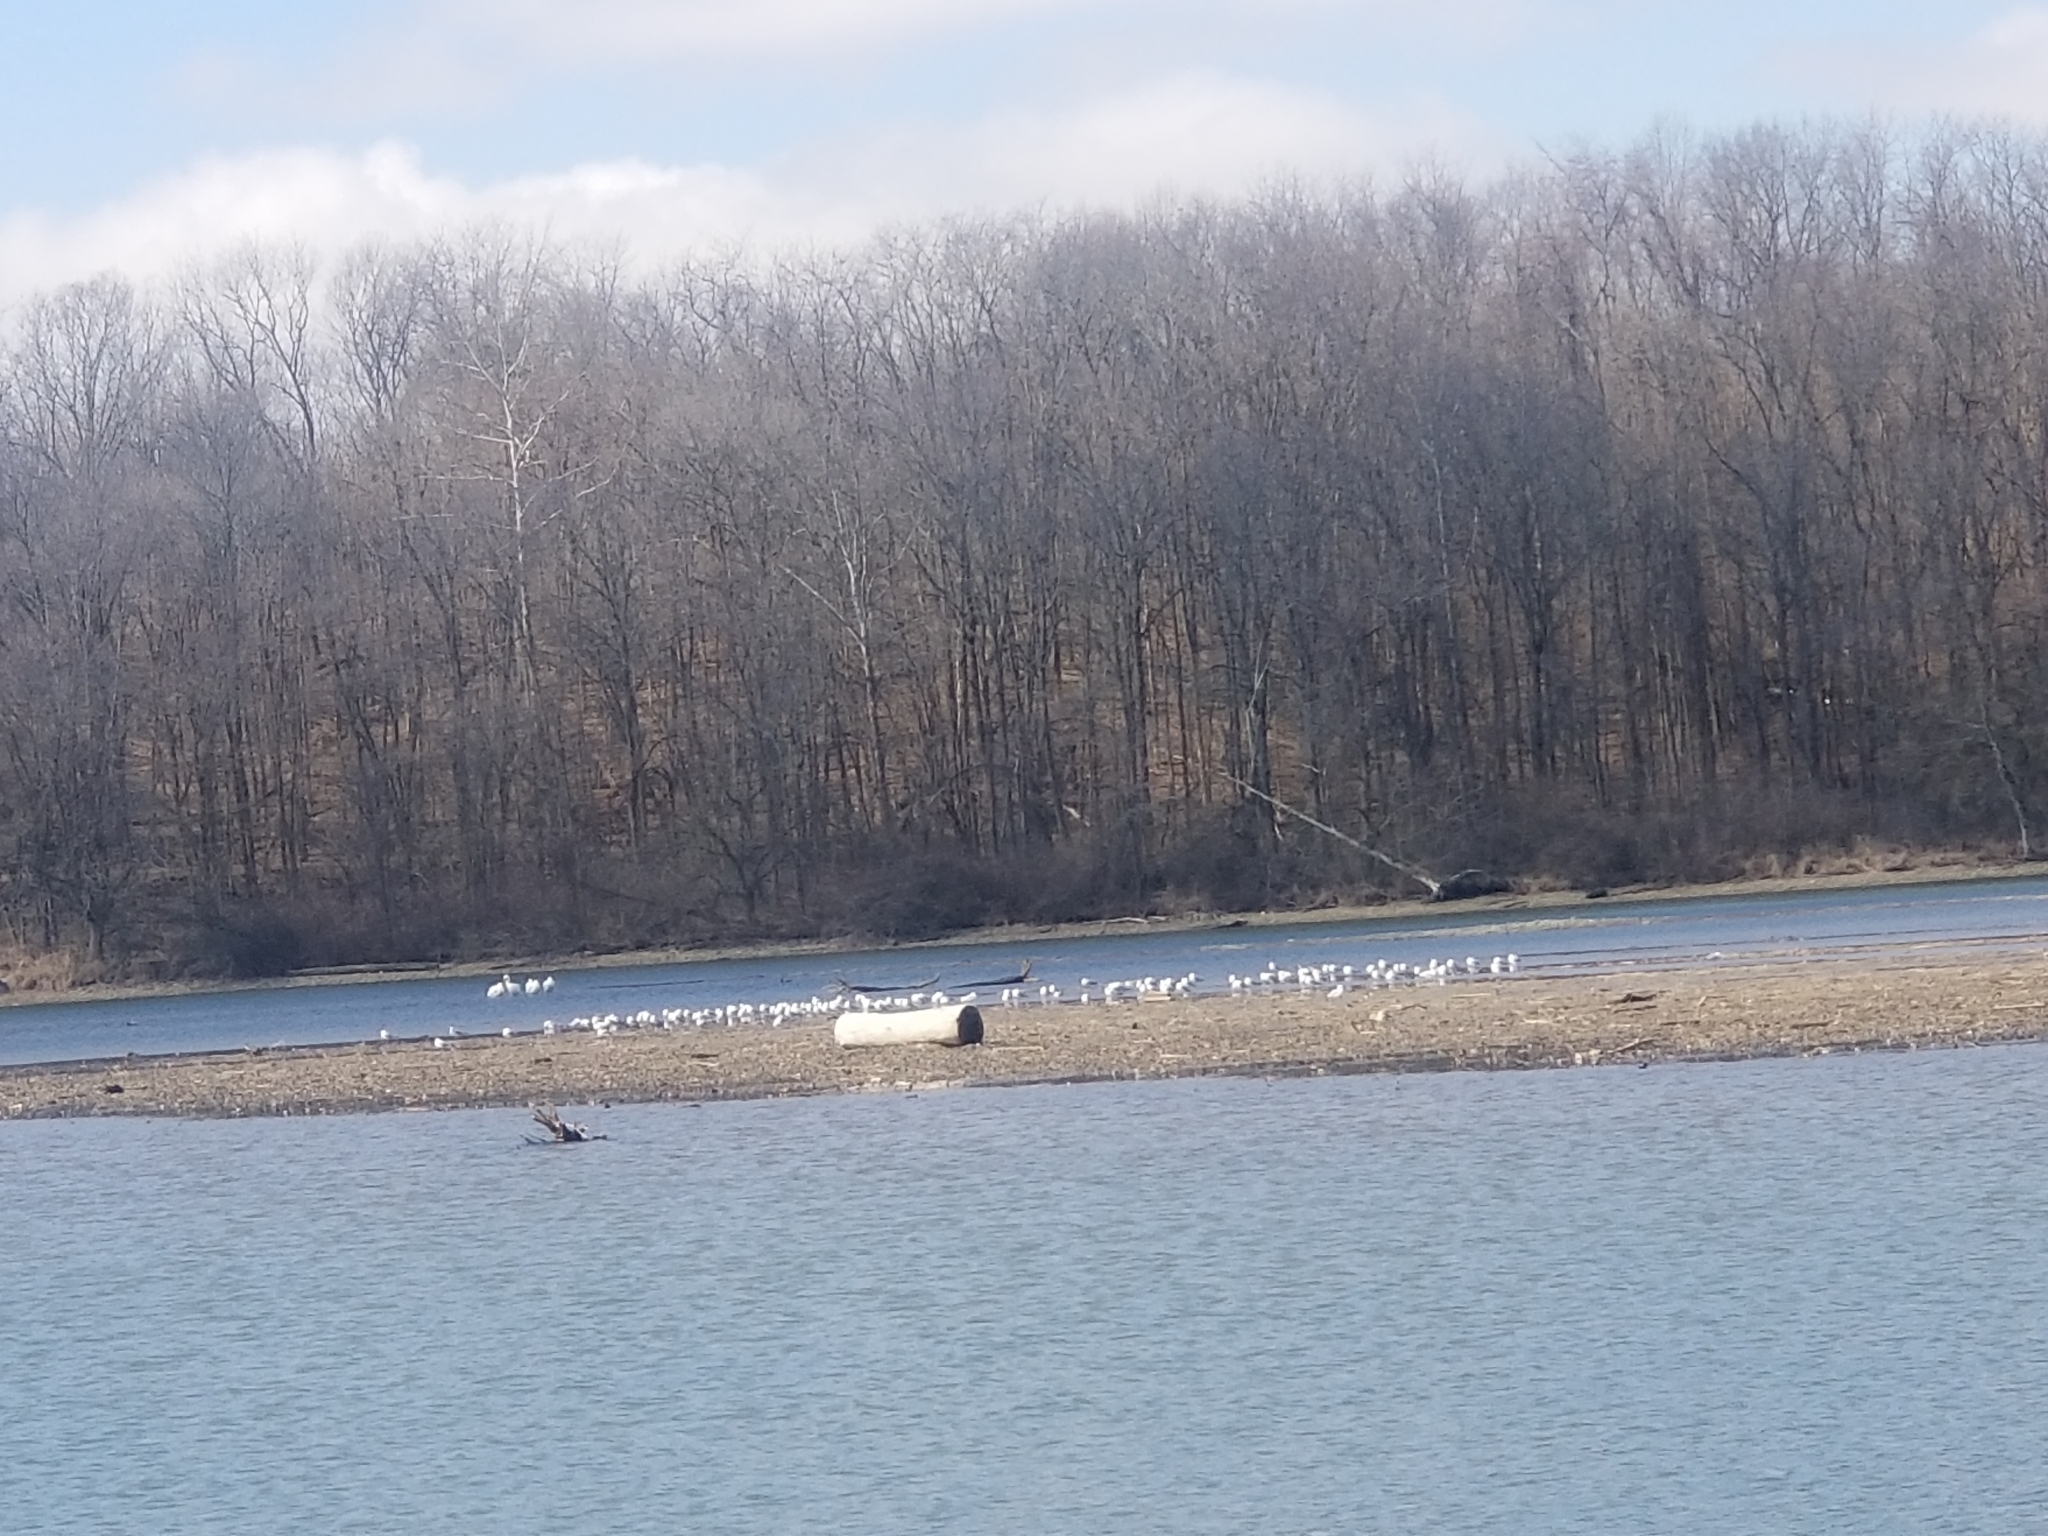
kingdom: Animalia
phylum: Chordata
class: Aves
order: Pelecaniformes
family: Pelecanidae
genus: Pelecanus
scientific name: Pelecanus erythrorhynchos
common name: American white pelican
